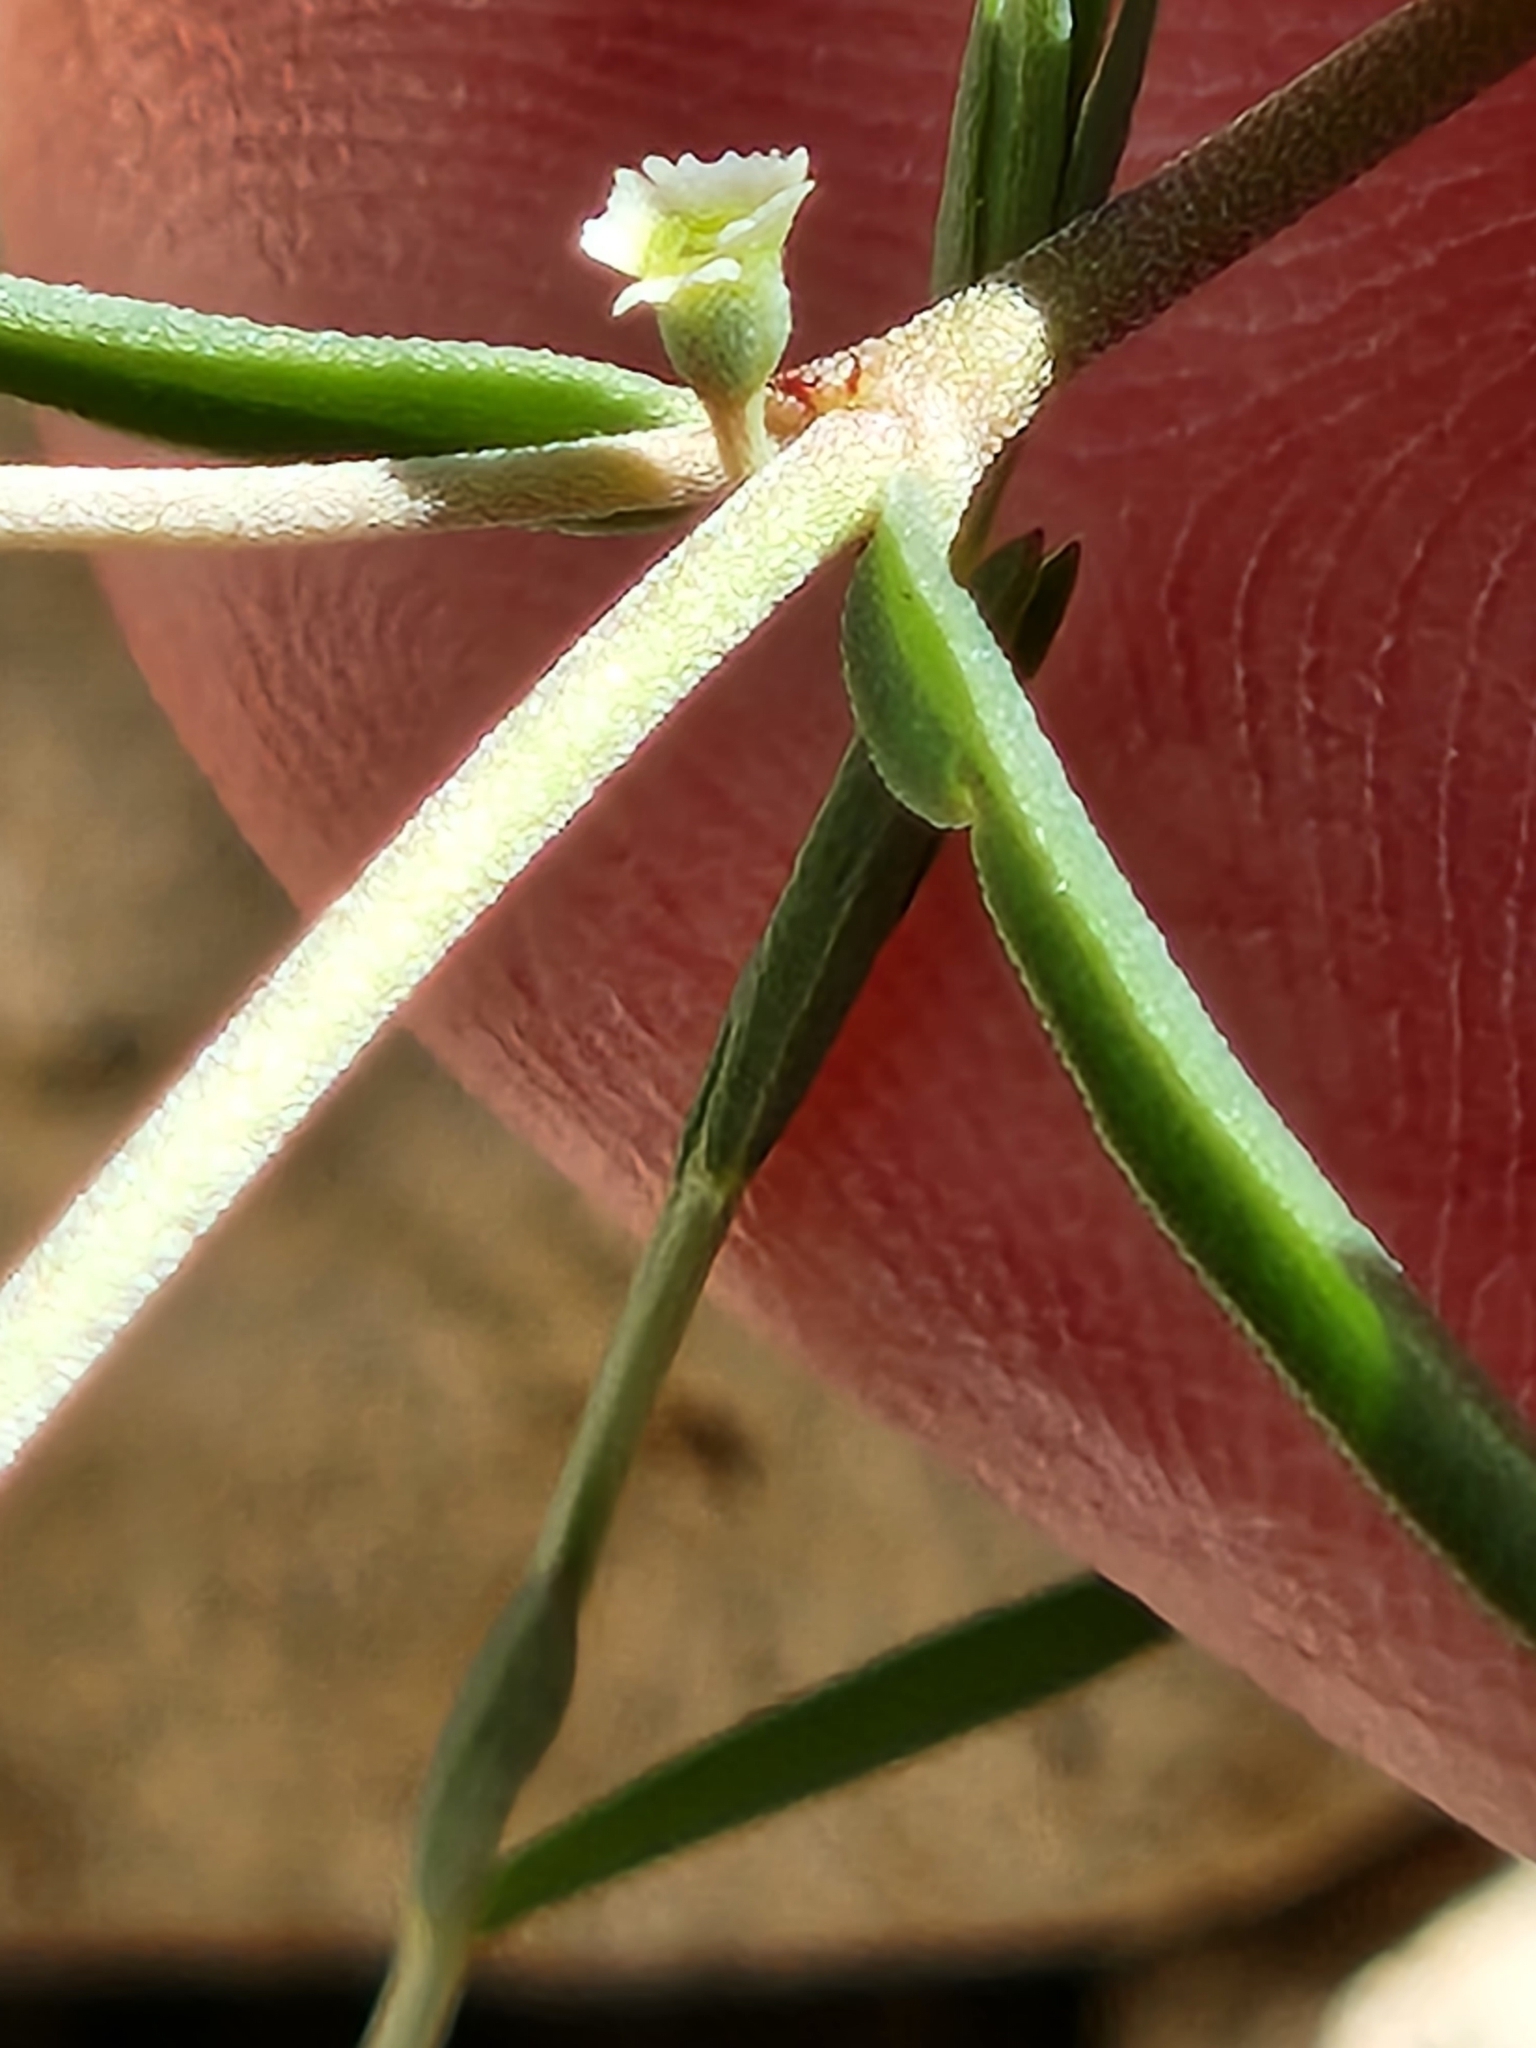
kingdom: Plantae
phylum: Tracheophyta
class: Magnoliopsida
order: Malpighiales
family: Euphorbiaceae
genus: Euphorbia
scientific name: Euphorbia angusta
